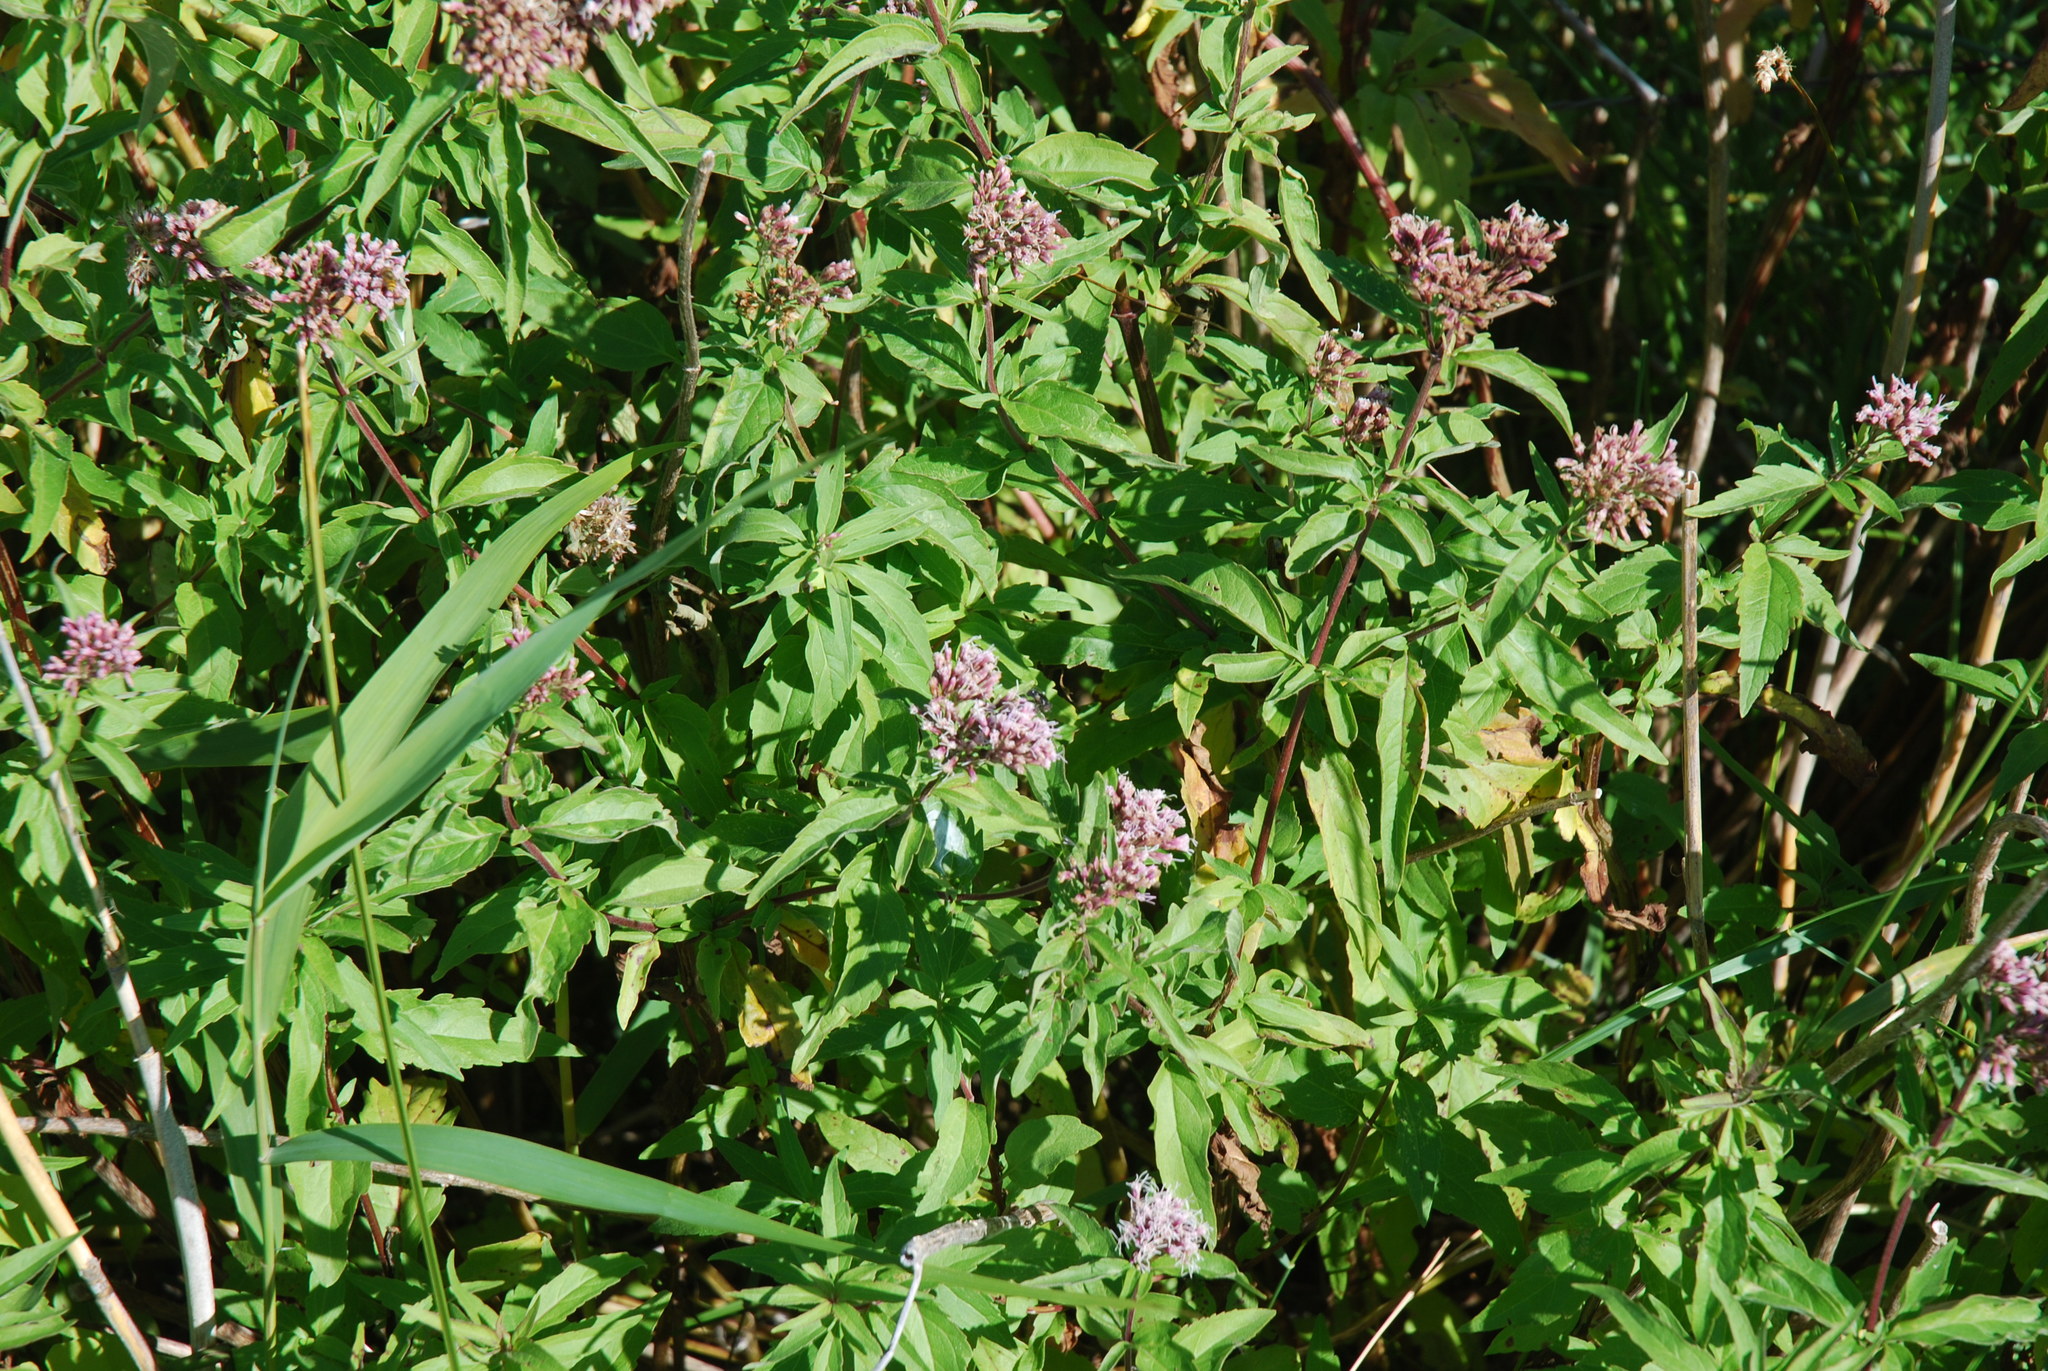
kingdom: Plantae
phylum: Tracheophyta
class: Magnoliopsida
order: Asterales
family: Asteraceae
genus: Eupatorium
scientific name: Eupatorium cannabinum
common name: Hemp-agrimony
